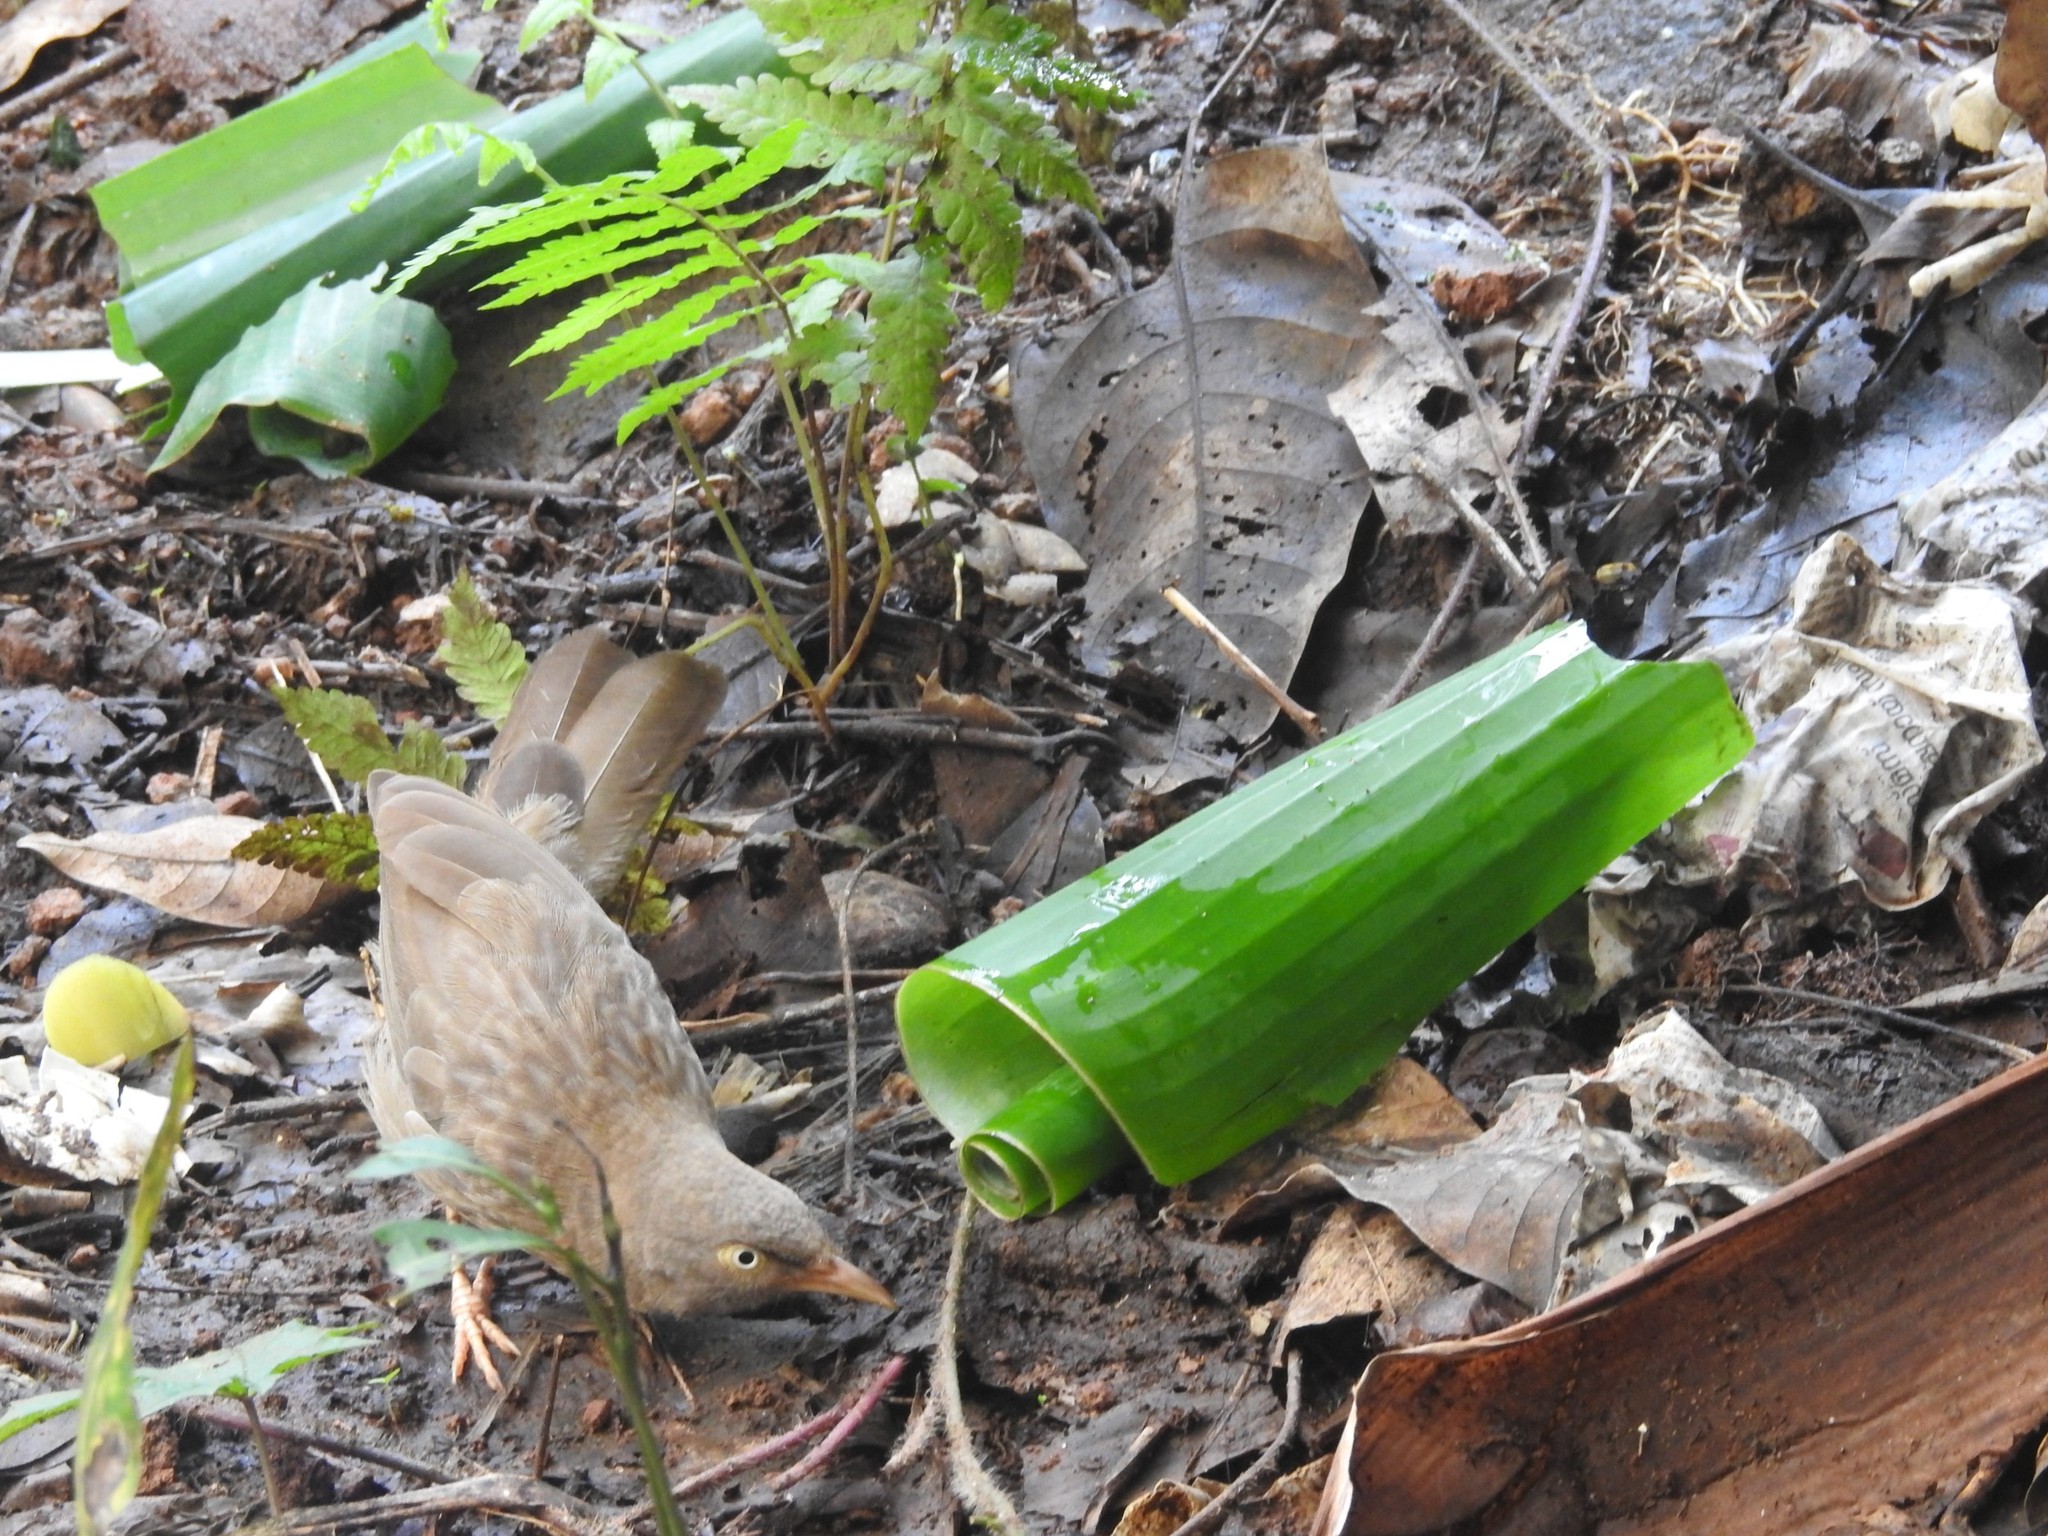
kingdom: Animalia
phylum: Chordata
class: Aves
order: Passeriformes
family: Leiothrichidae
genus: Turdoides
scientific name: Turdoides striata
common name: Jungle babbler
